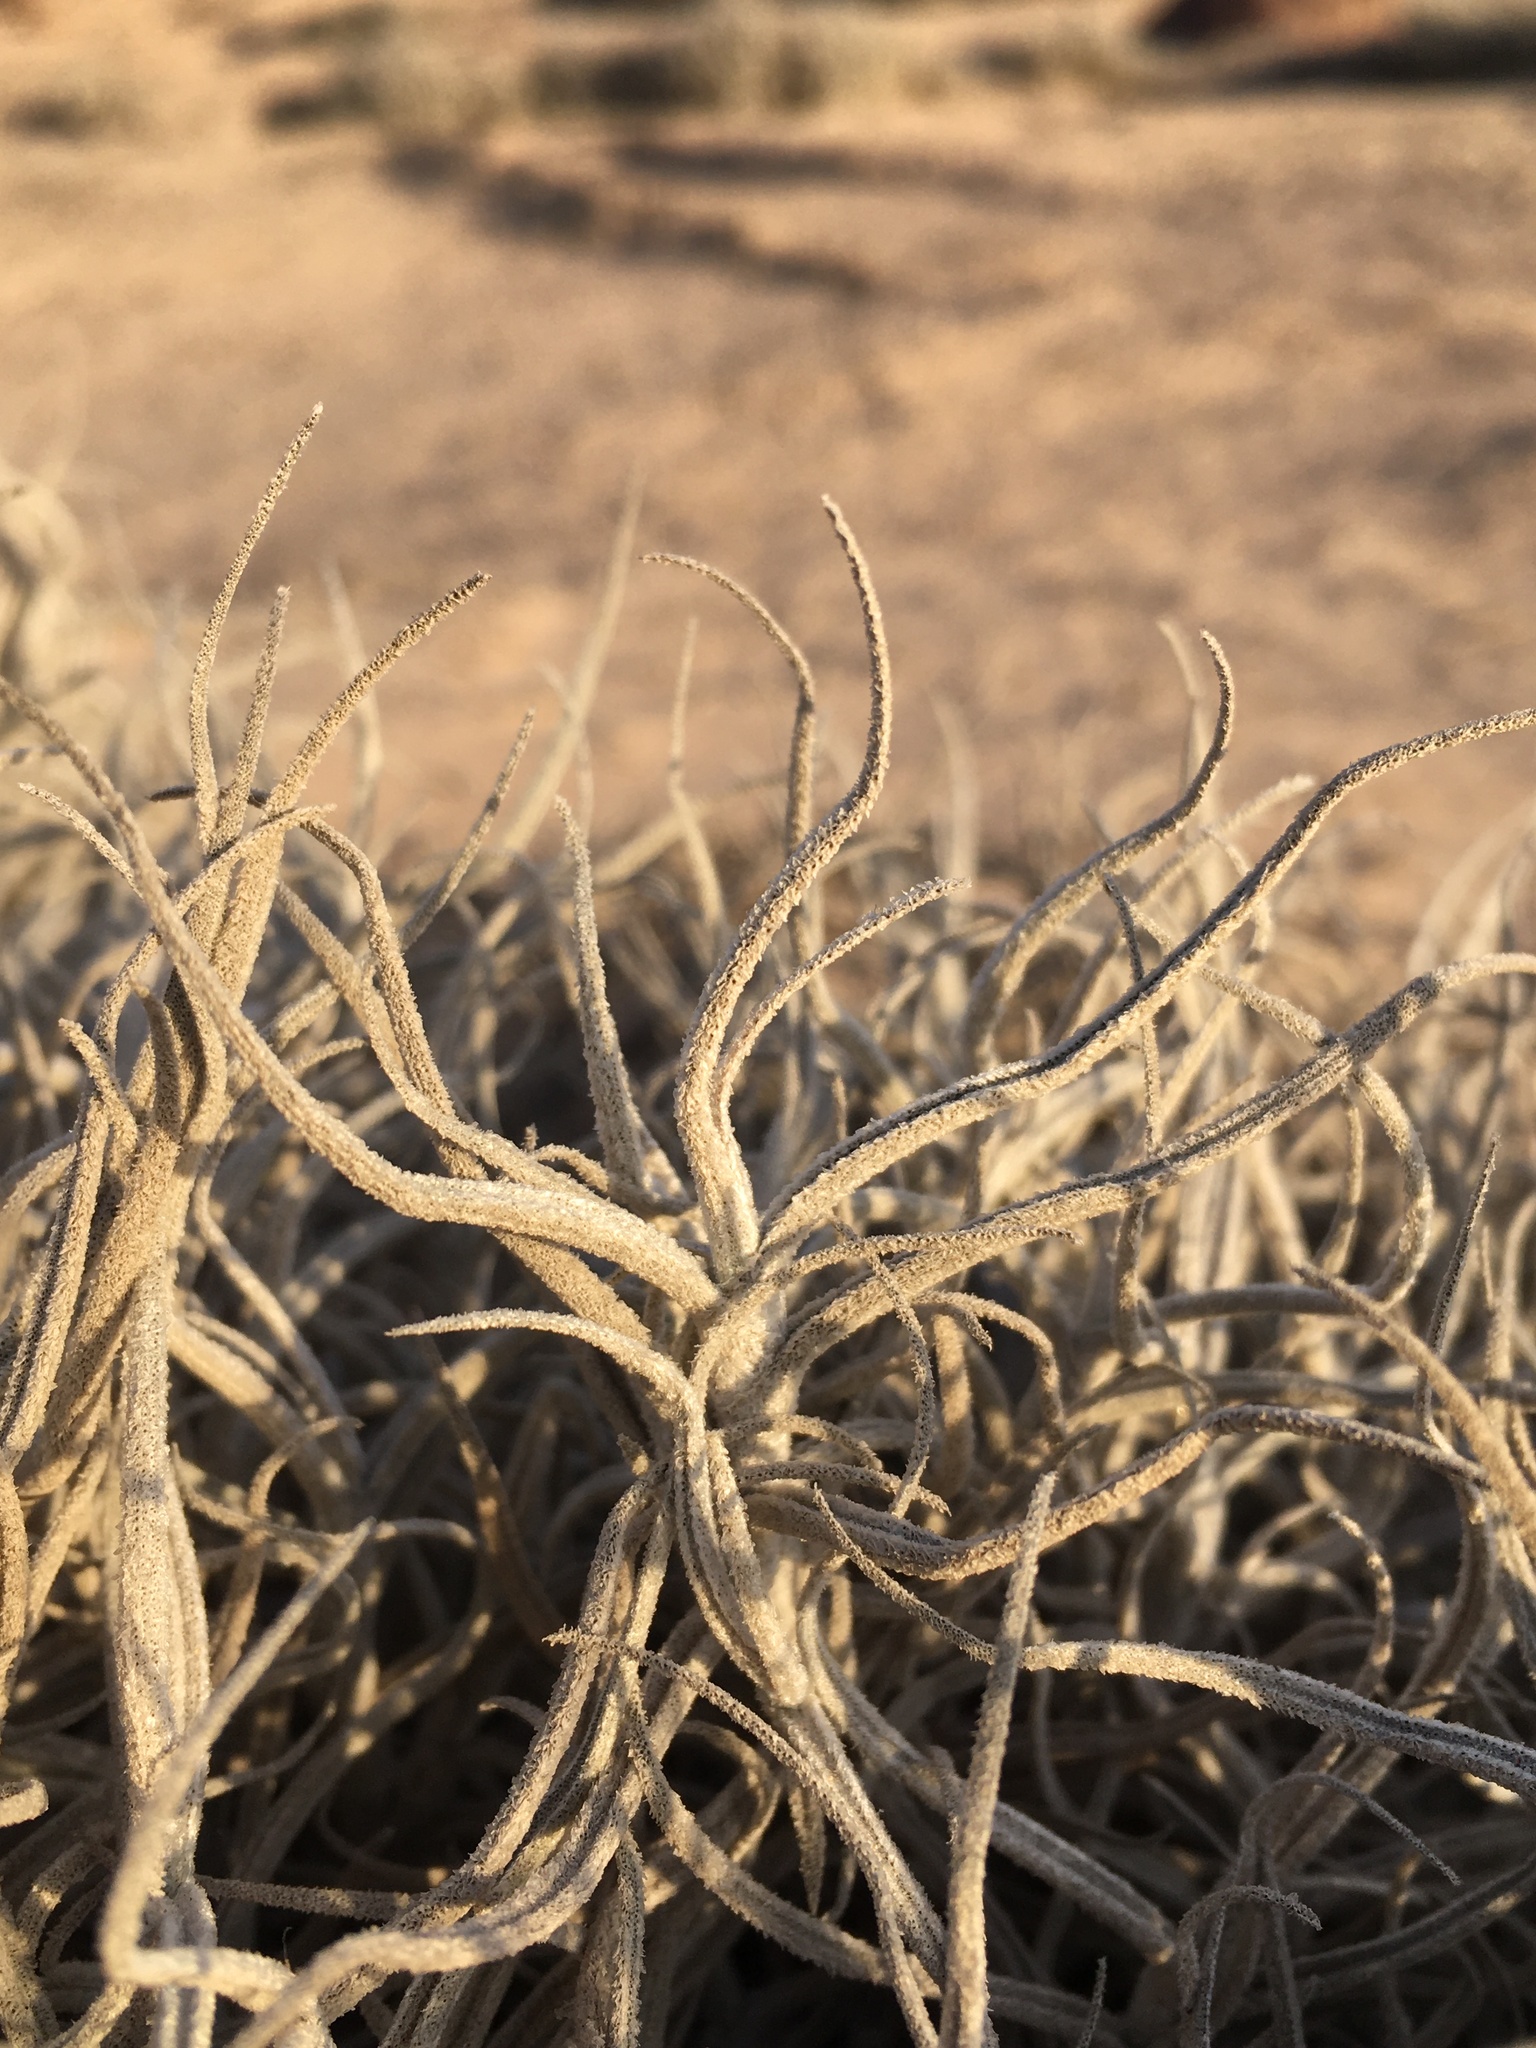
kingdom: Plantae
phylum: Tracheophyta
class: Liliopsida
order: Poales
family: Bromeliaceae
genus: Tillandsia
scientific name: Tillandsia landbeckii
